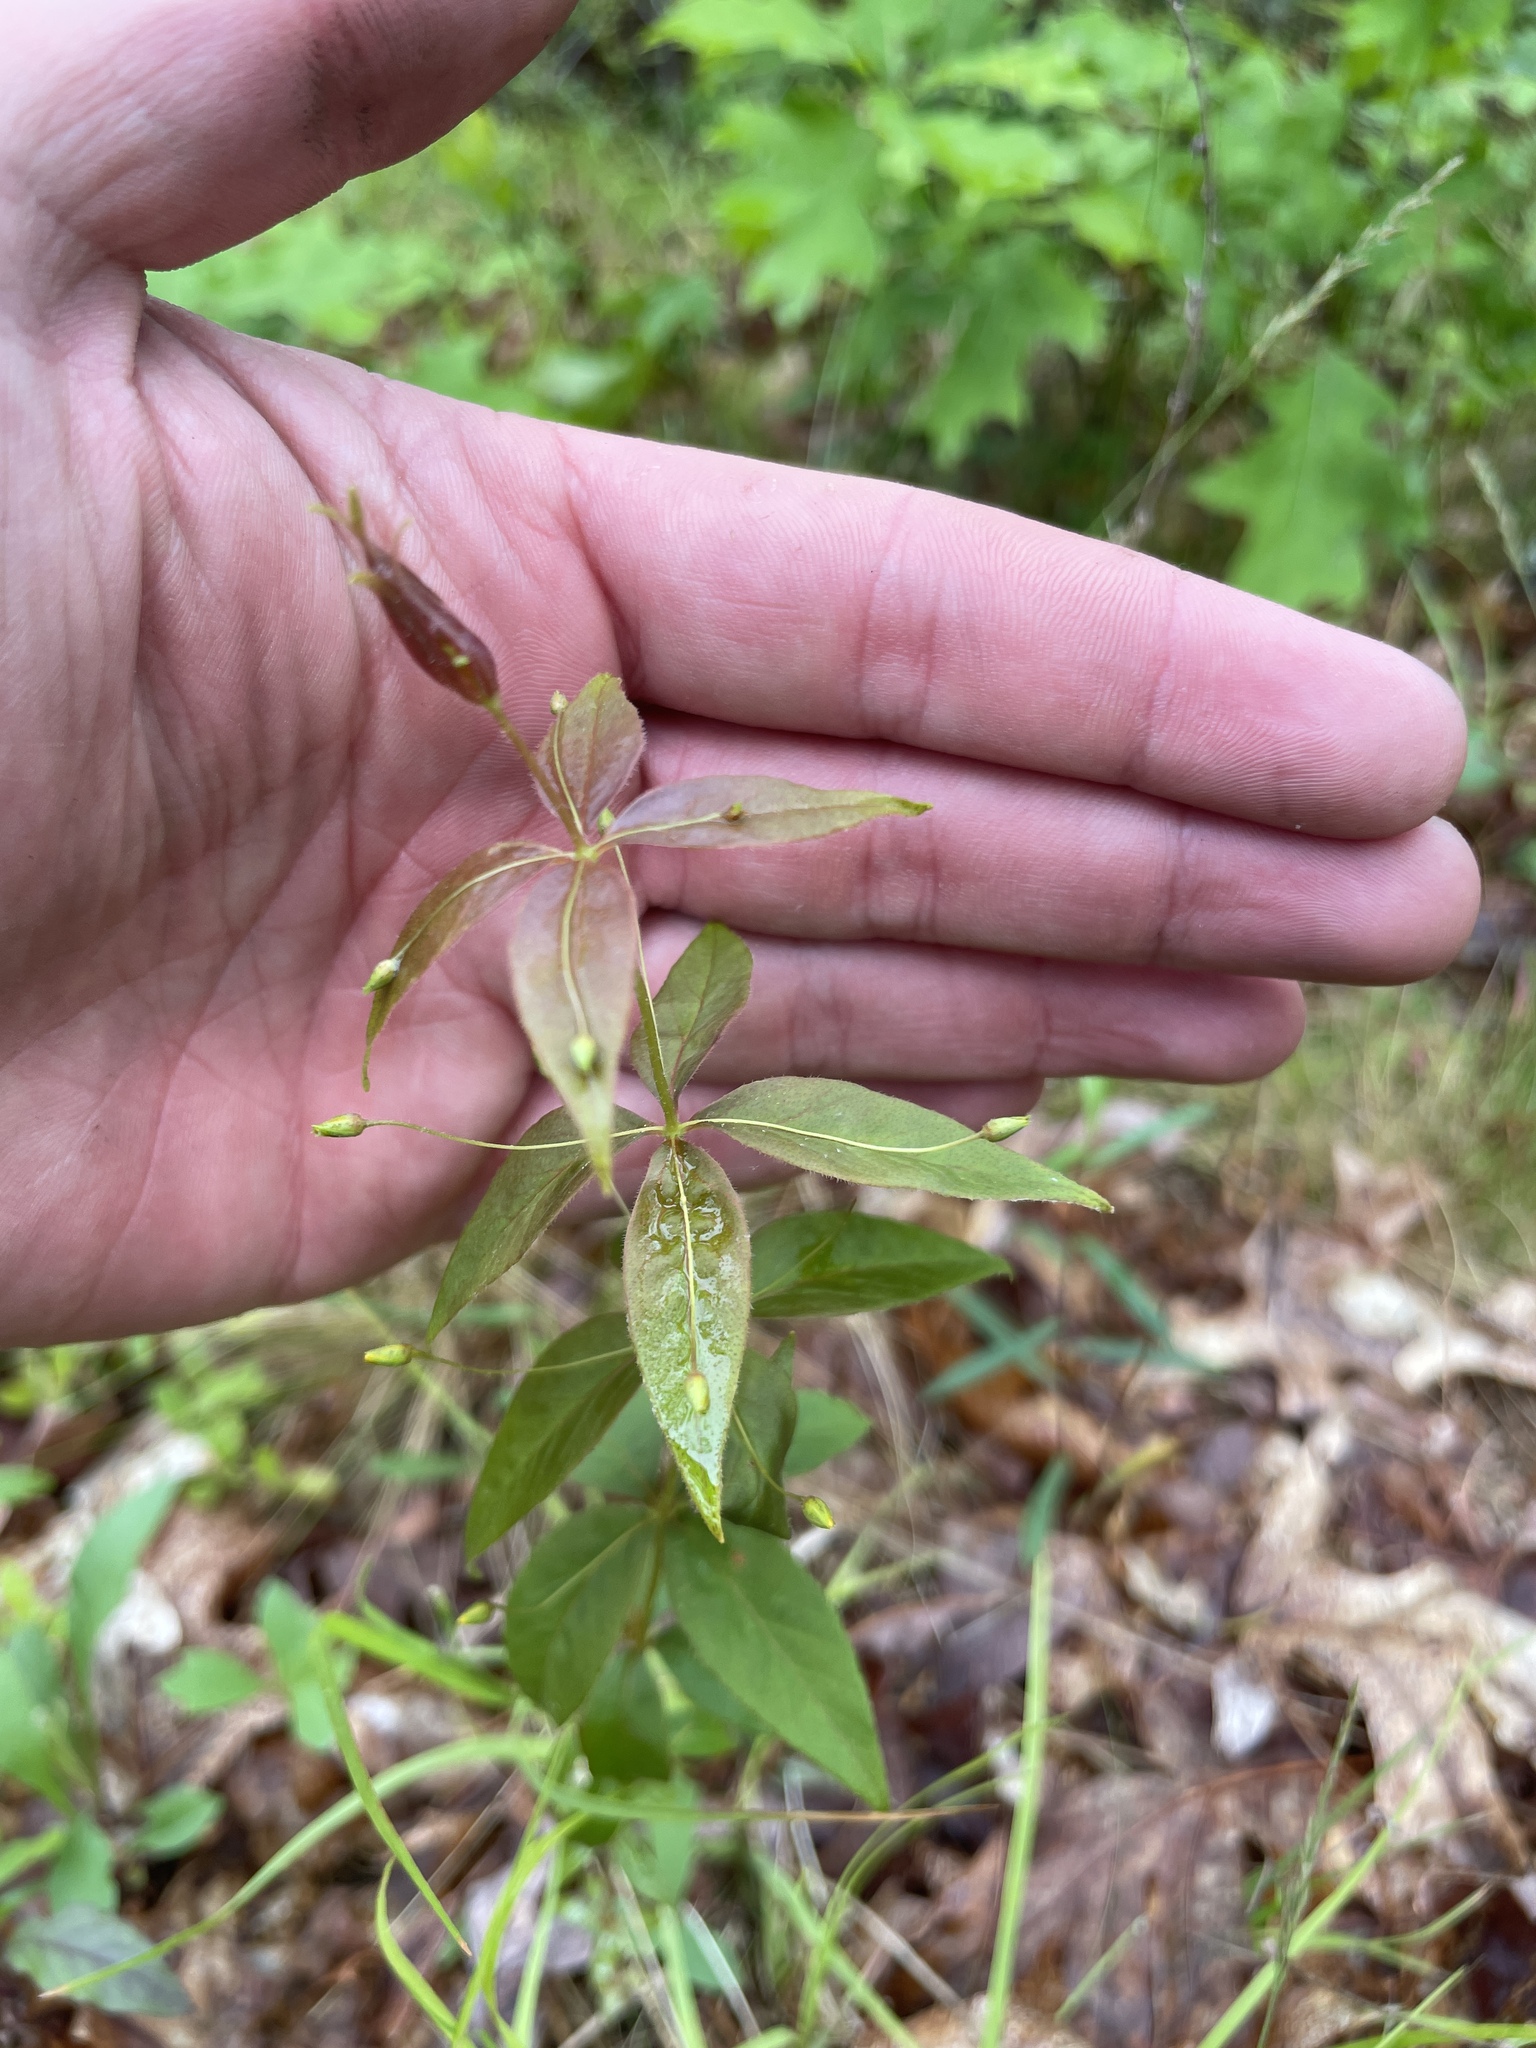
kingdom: Plantae
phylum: Tracheophyta
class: Magnoliopsida
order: Ericales
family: Primulaceae
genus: Lysimachia
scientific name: Lysimachia quadrifolia
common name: Whorled loosestrife
